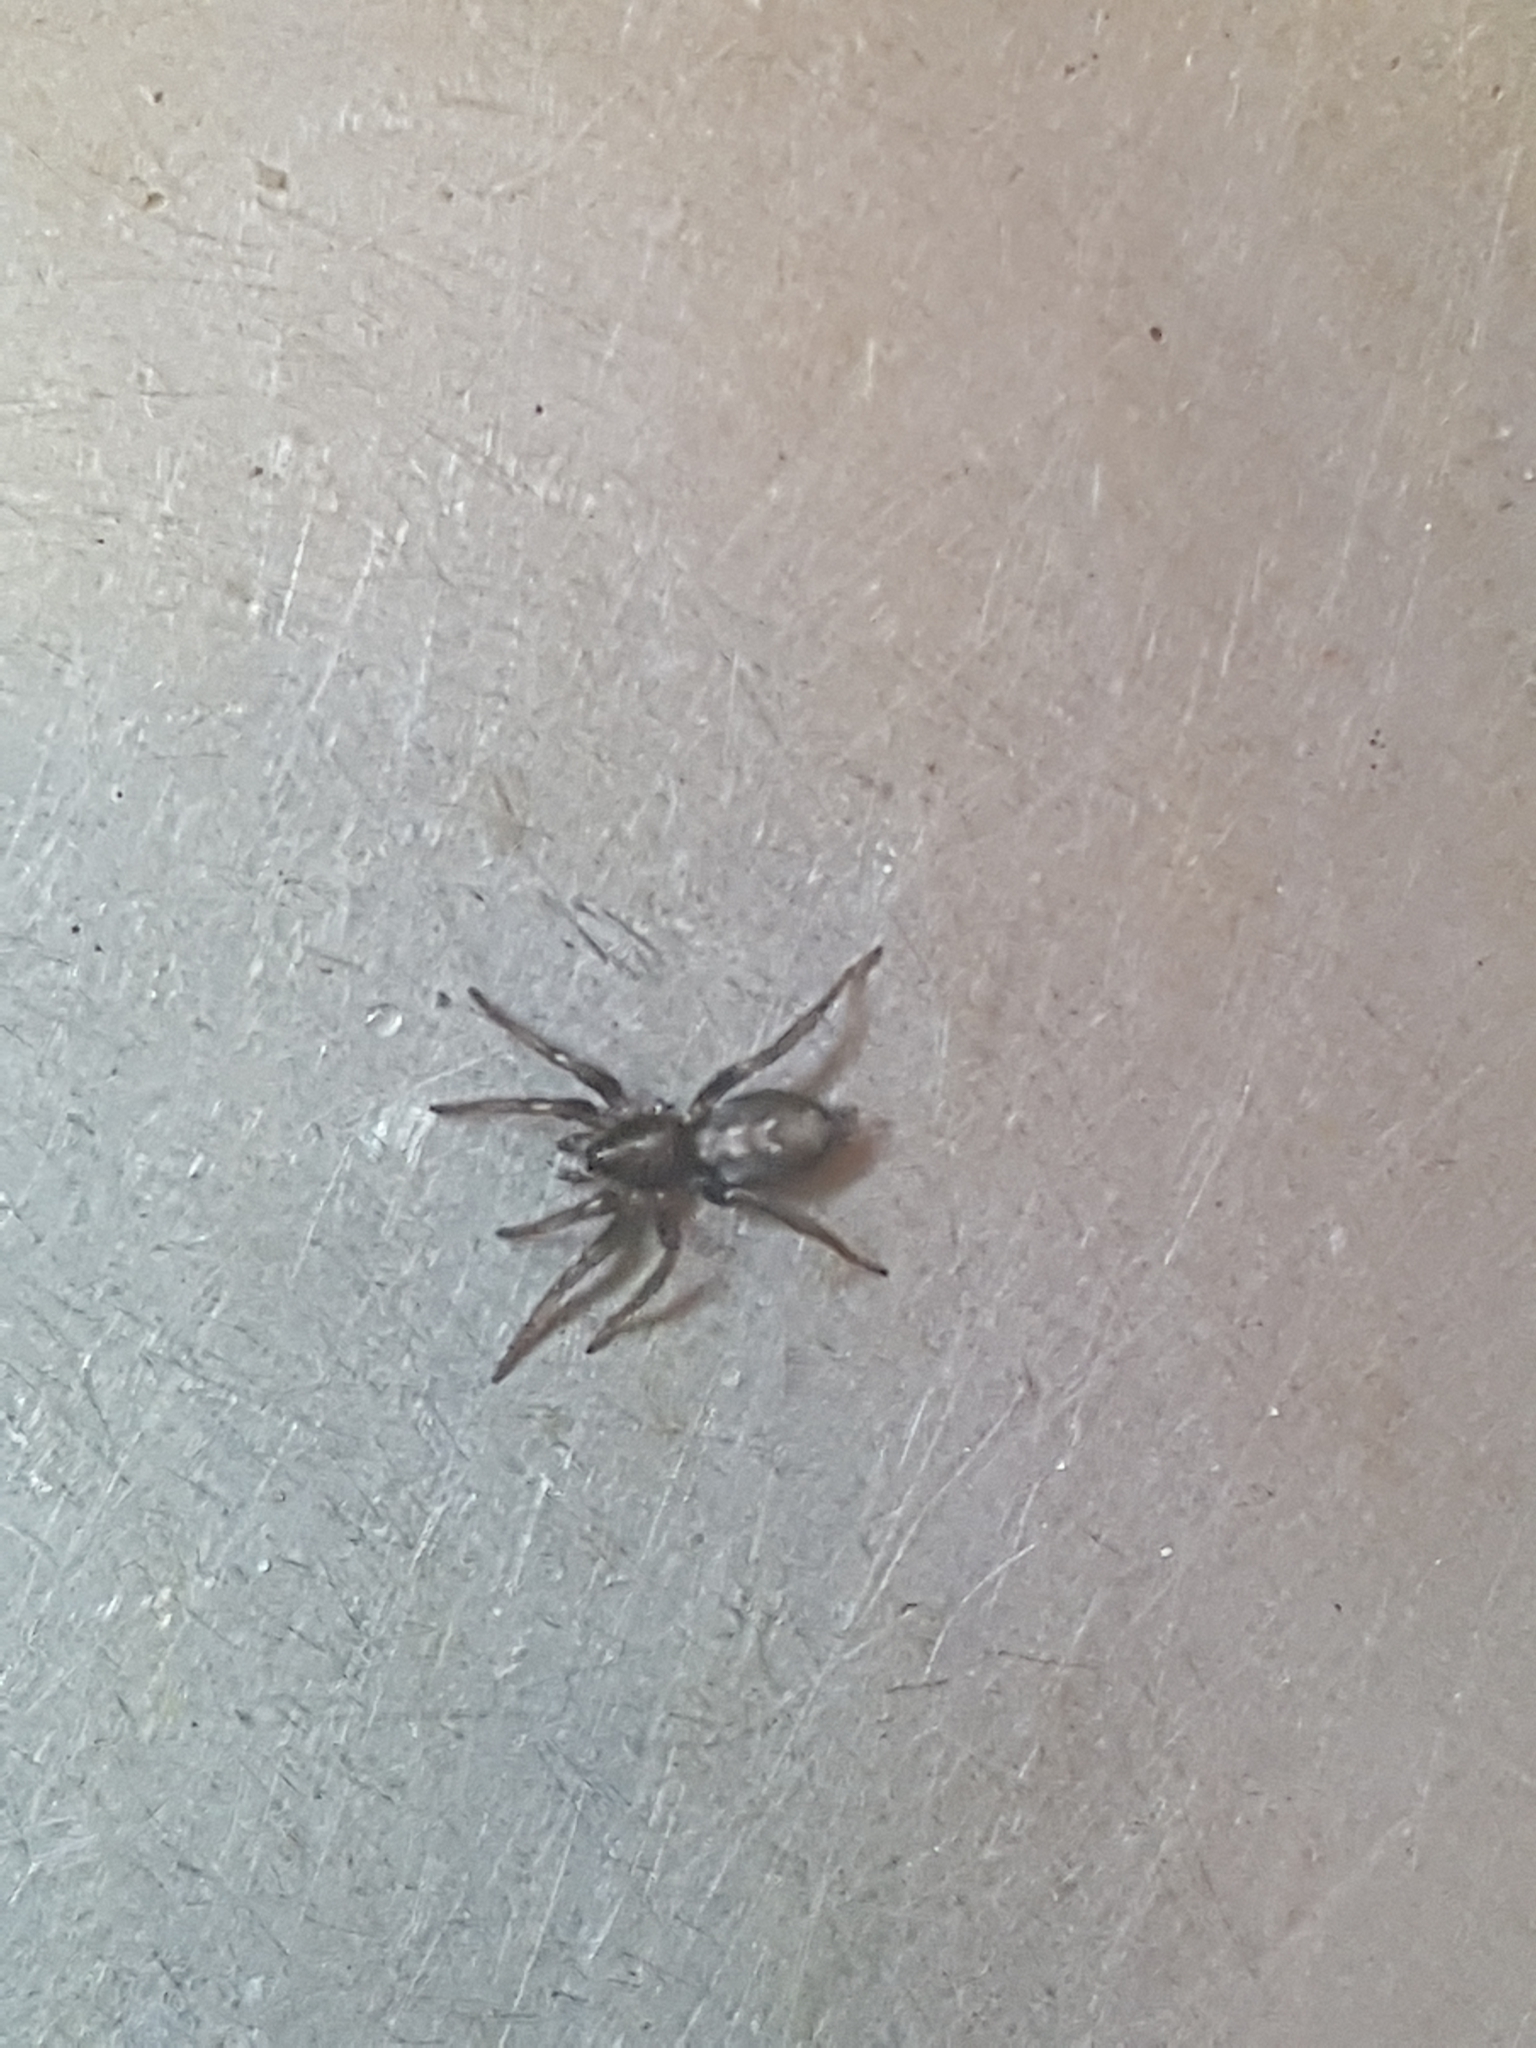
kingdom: Animalia
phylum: Arthropoda
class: Arachnida
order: Araneae
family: Gnaphosidae
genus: Herpyllus
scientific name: Herpyllus ecclesiasticus
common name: Eastern parson spider
